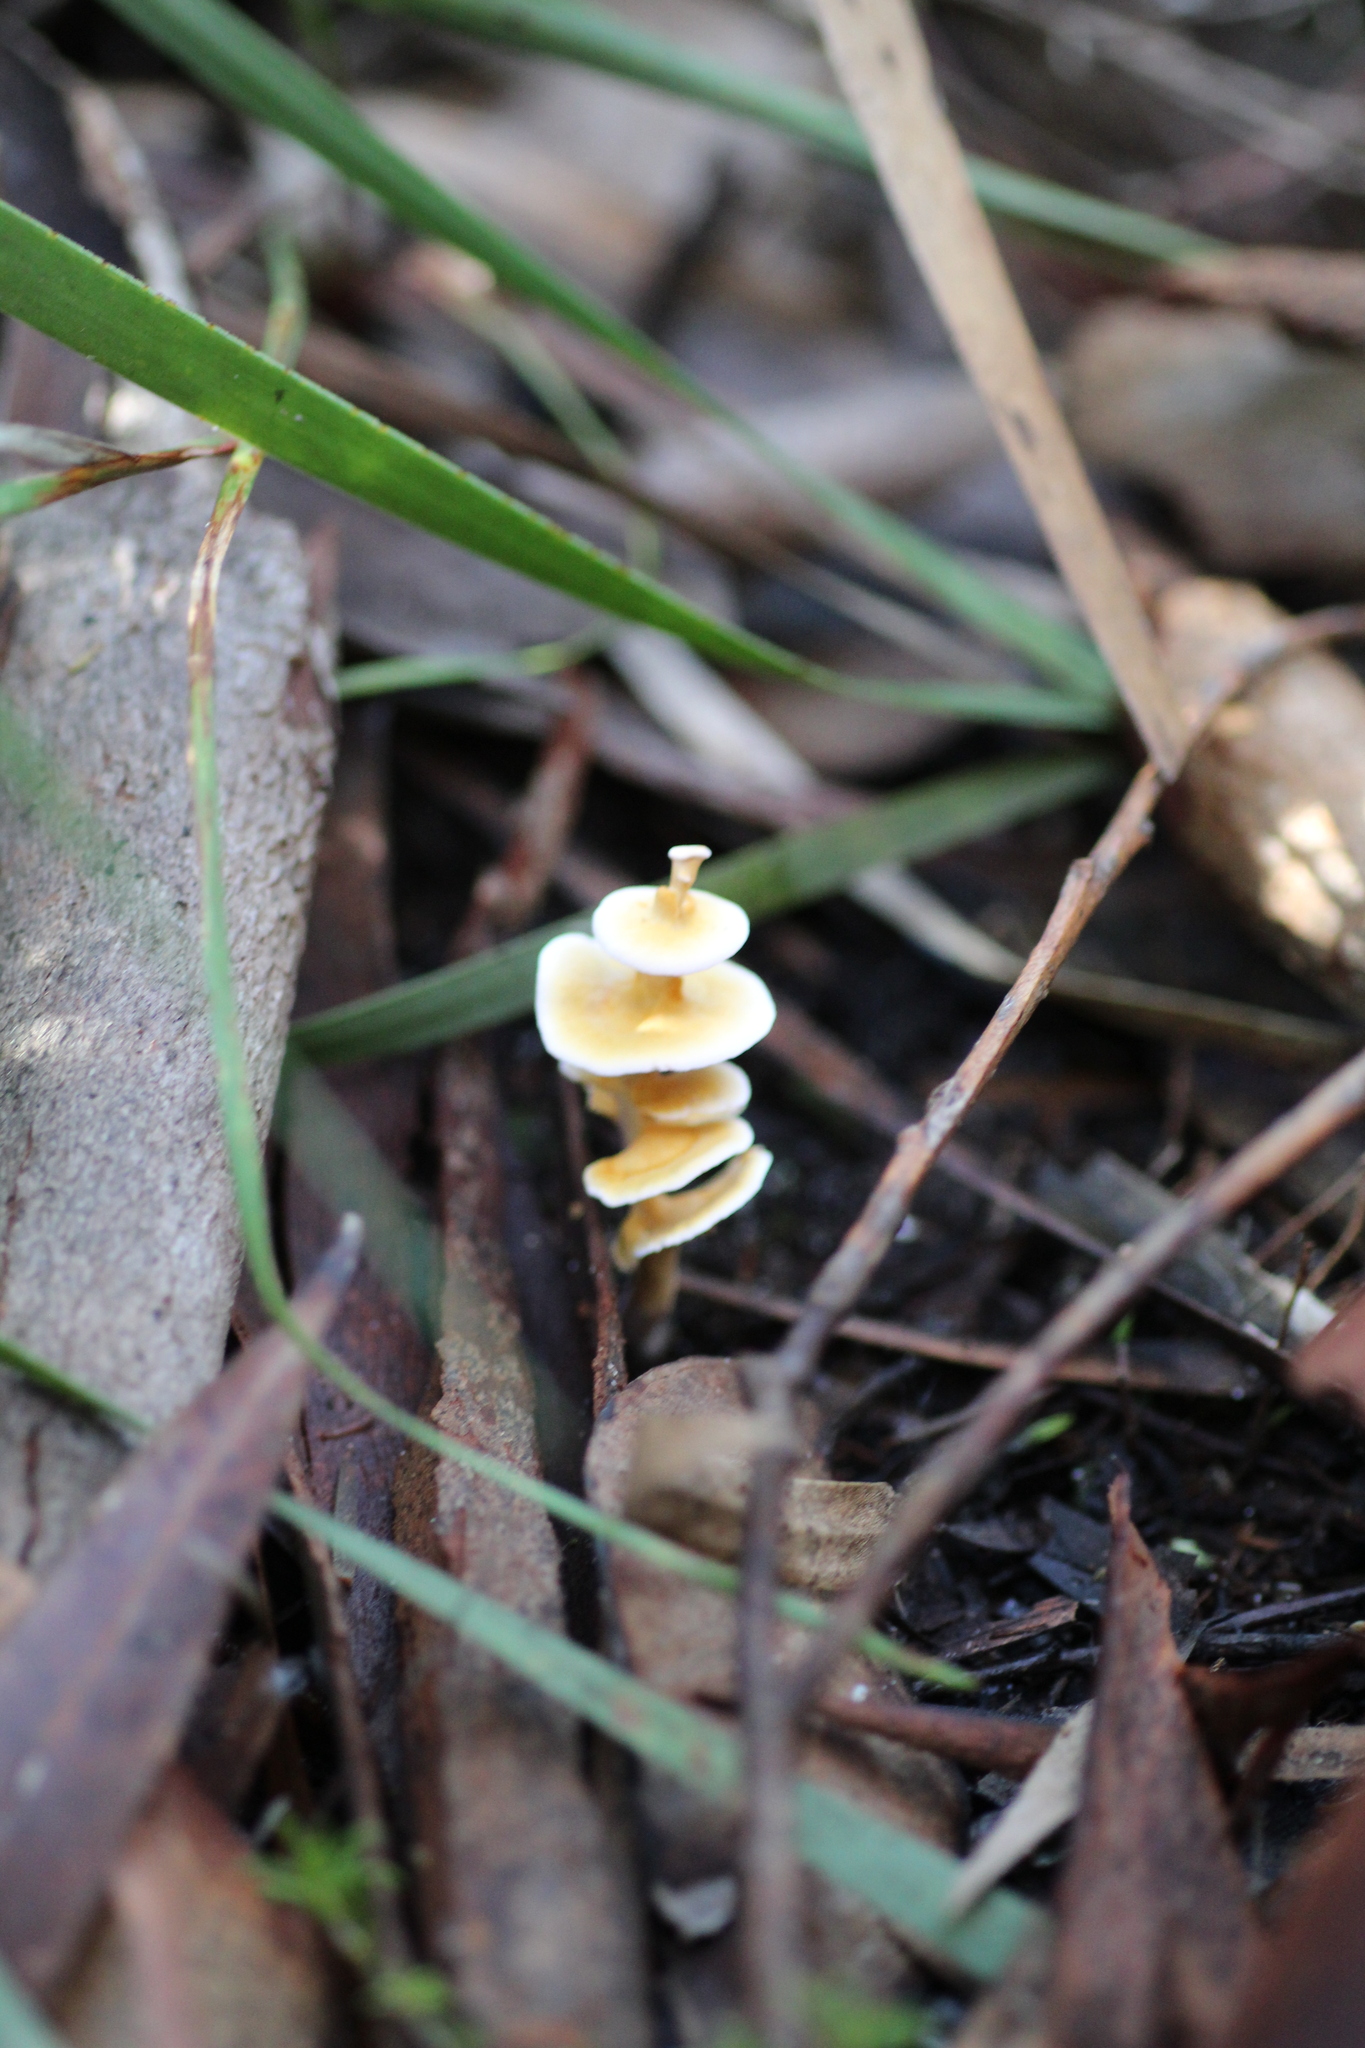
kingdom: Fungi
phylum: Basidiomycota
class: Agaricomycetes
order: Amylocorticiales
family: Amylocorticiaceae
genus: Podoserpula
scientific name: Podoserpula pusio
